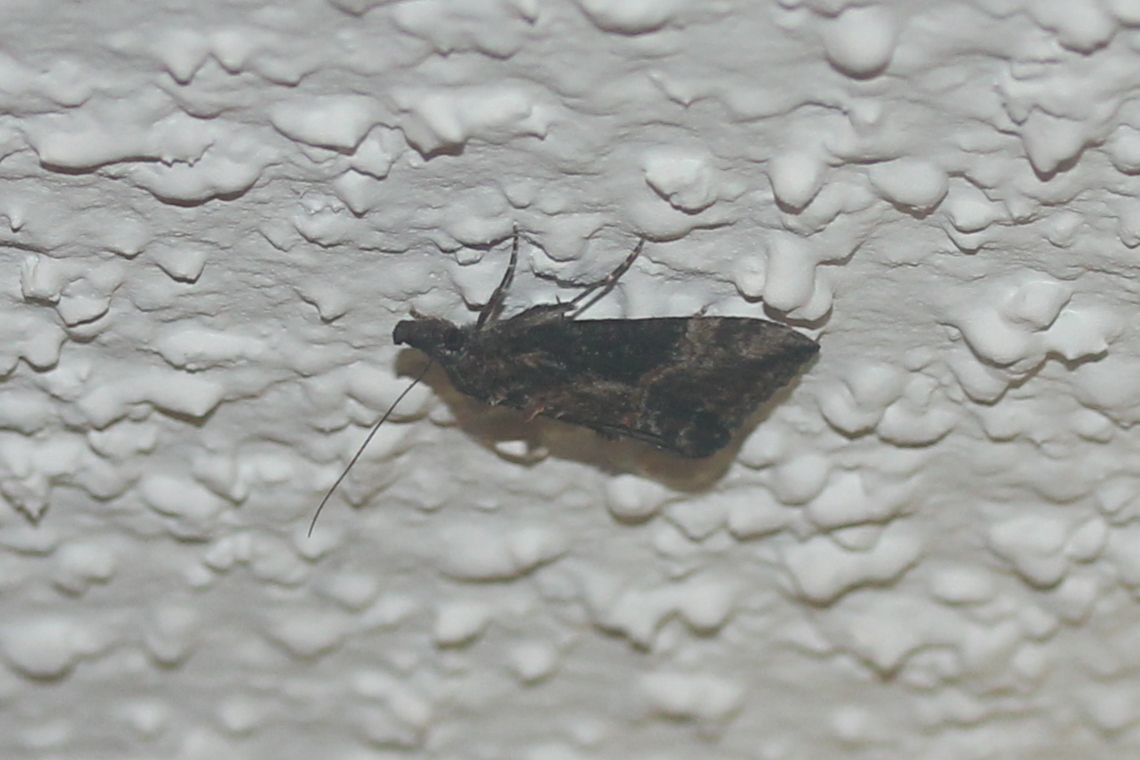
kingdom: Animalia
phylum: Arthropoda
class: Insecta
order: Lepidoptera
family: Erebidae
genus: Hypena
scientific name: Hypena scabra
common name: Green cloverworm
